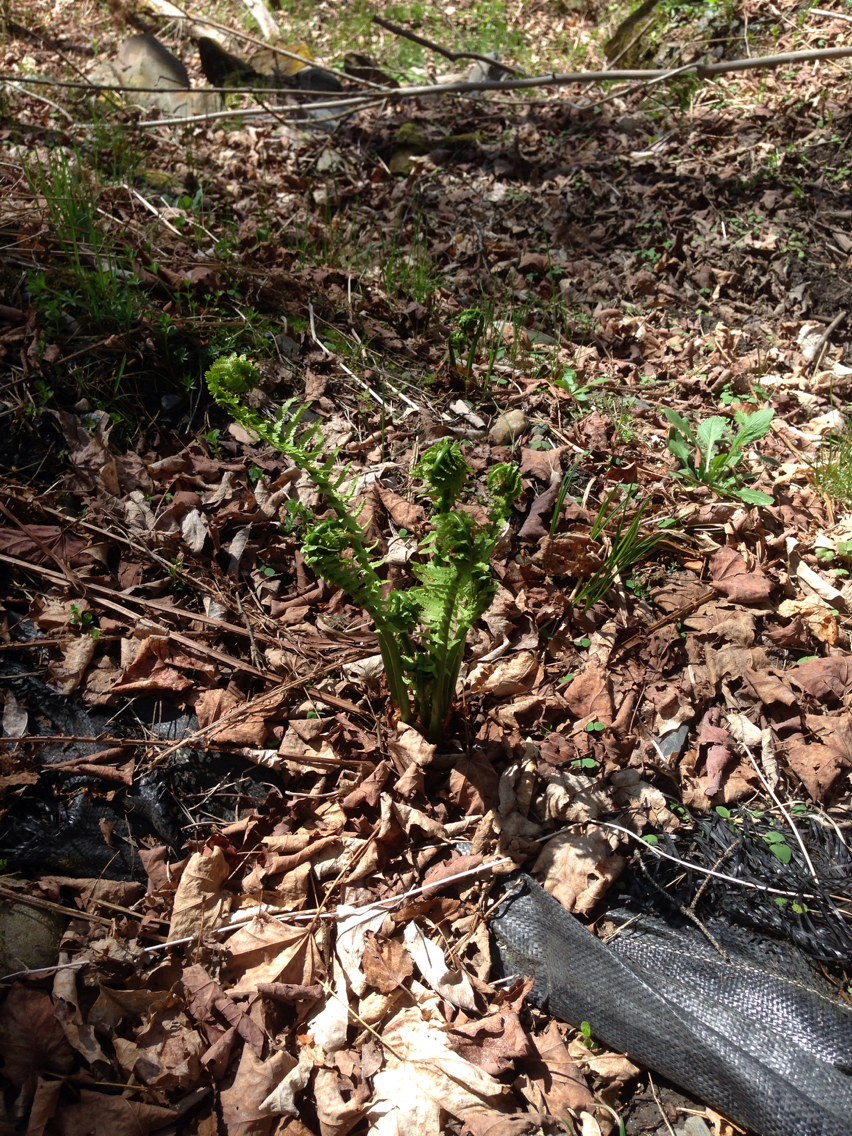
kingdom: Plantae
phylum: Tracheophyta
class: Polypodiopsida
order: Polypodiales
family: Onocleaceae
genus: Matteuccia
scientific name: Matteuccia struthiopteris
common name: Ostrich fern
